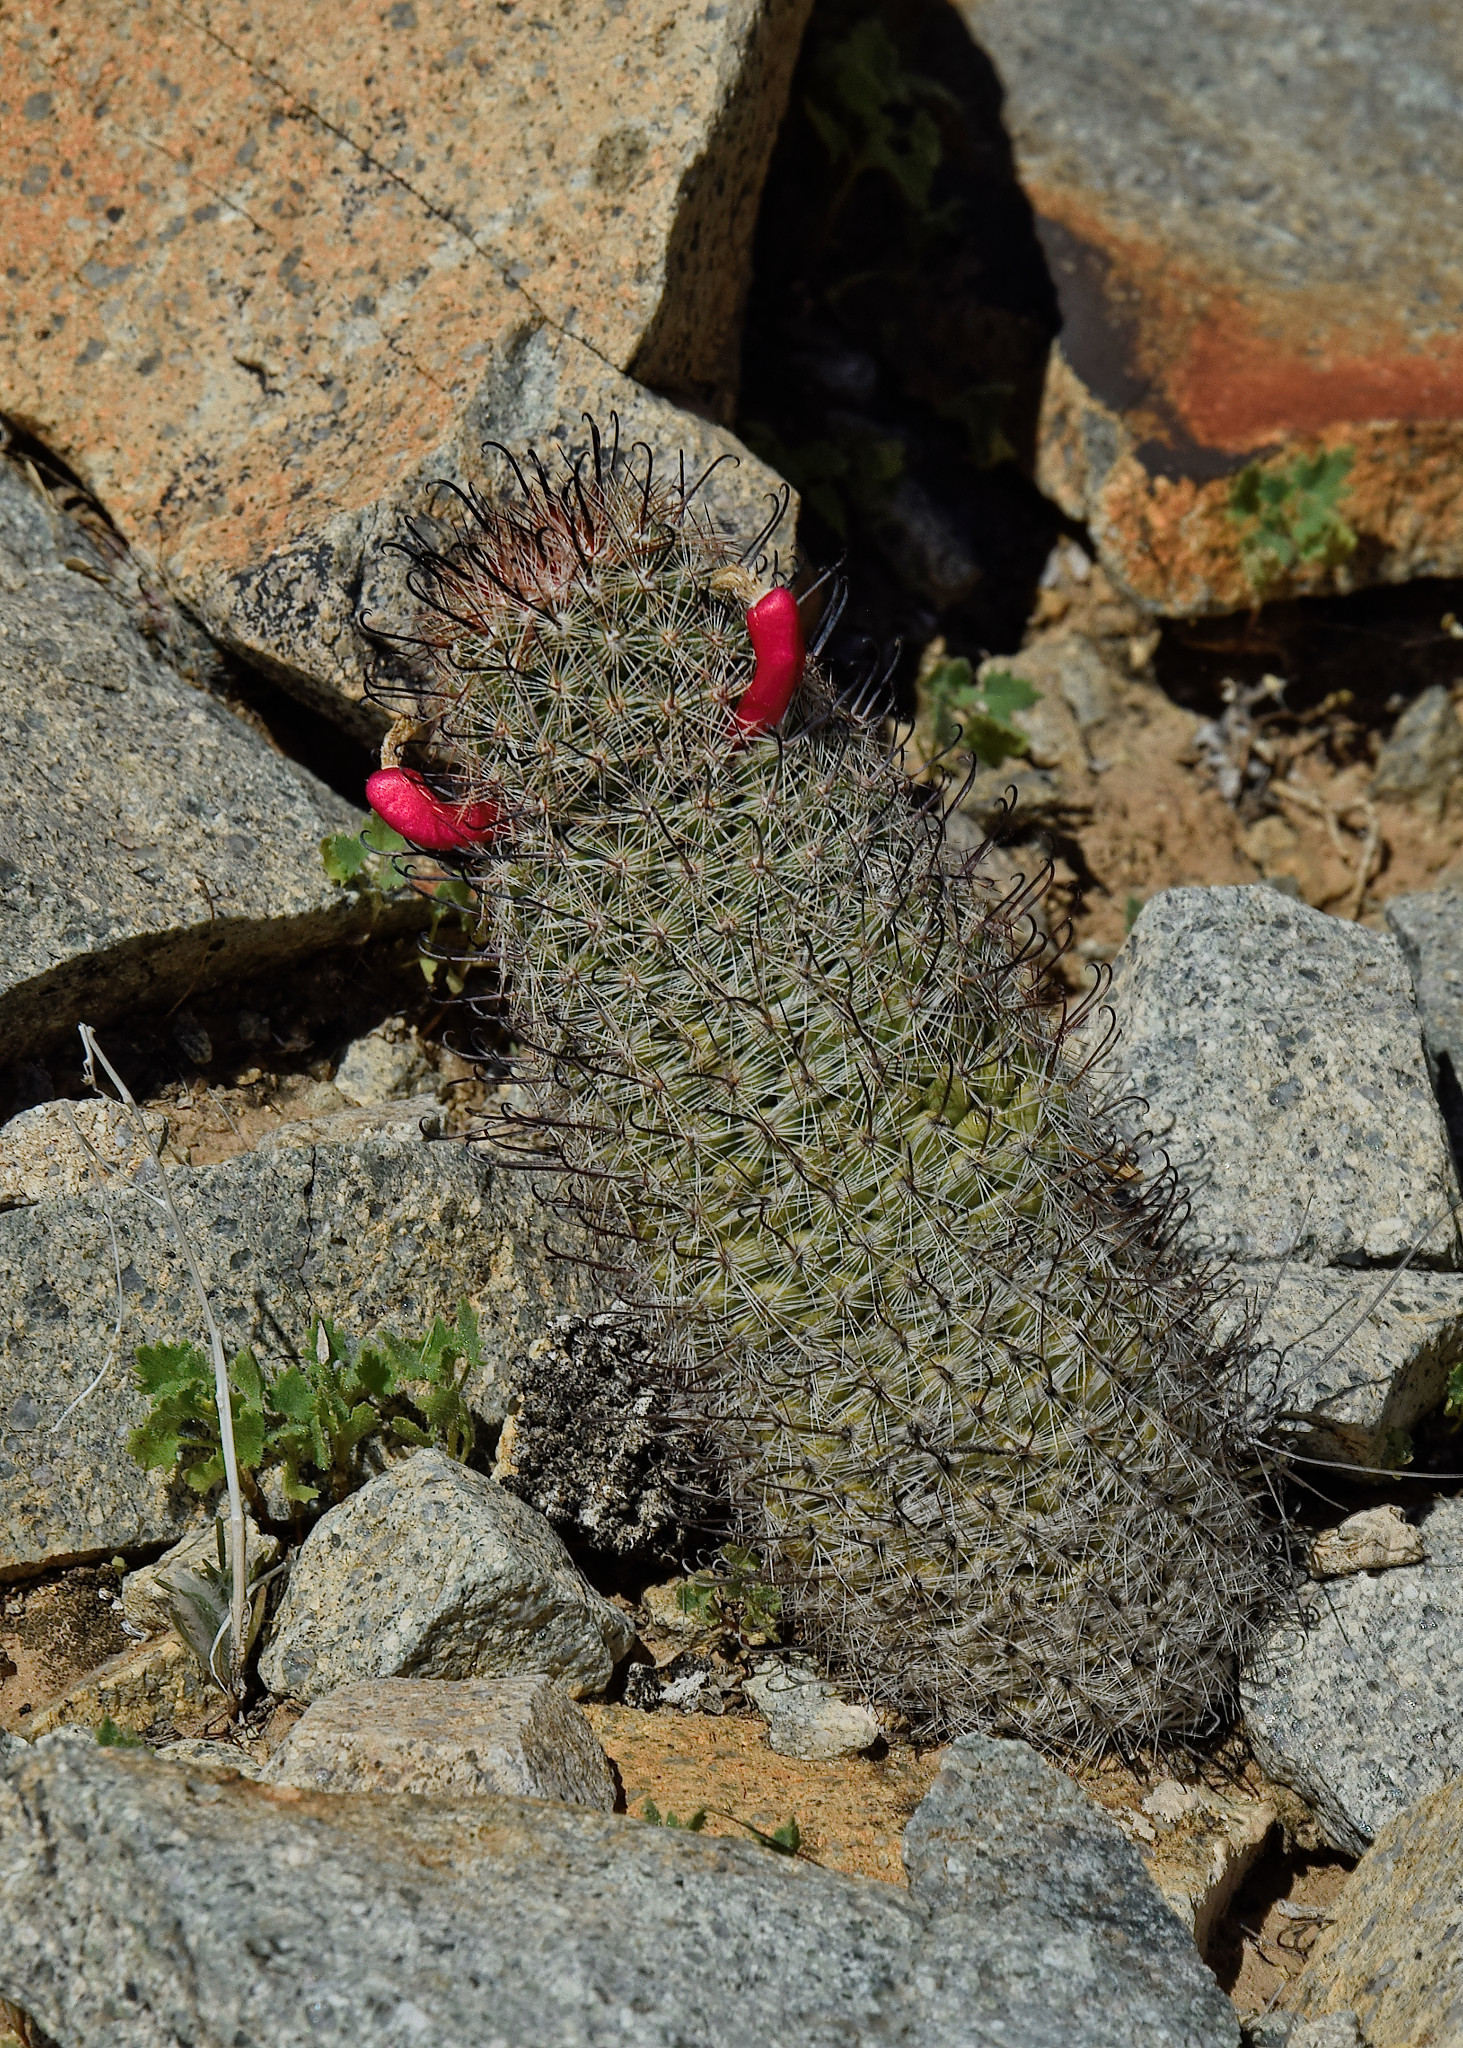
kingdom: Plantae
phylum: Tracheophyta
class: Magnoliopsida
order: Caryophyllales
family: Cactaceae
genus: Cochemiea
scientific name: Cochemiea grahamii
